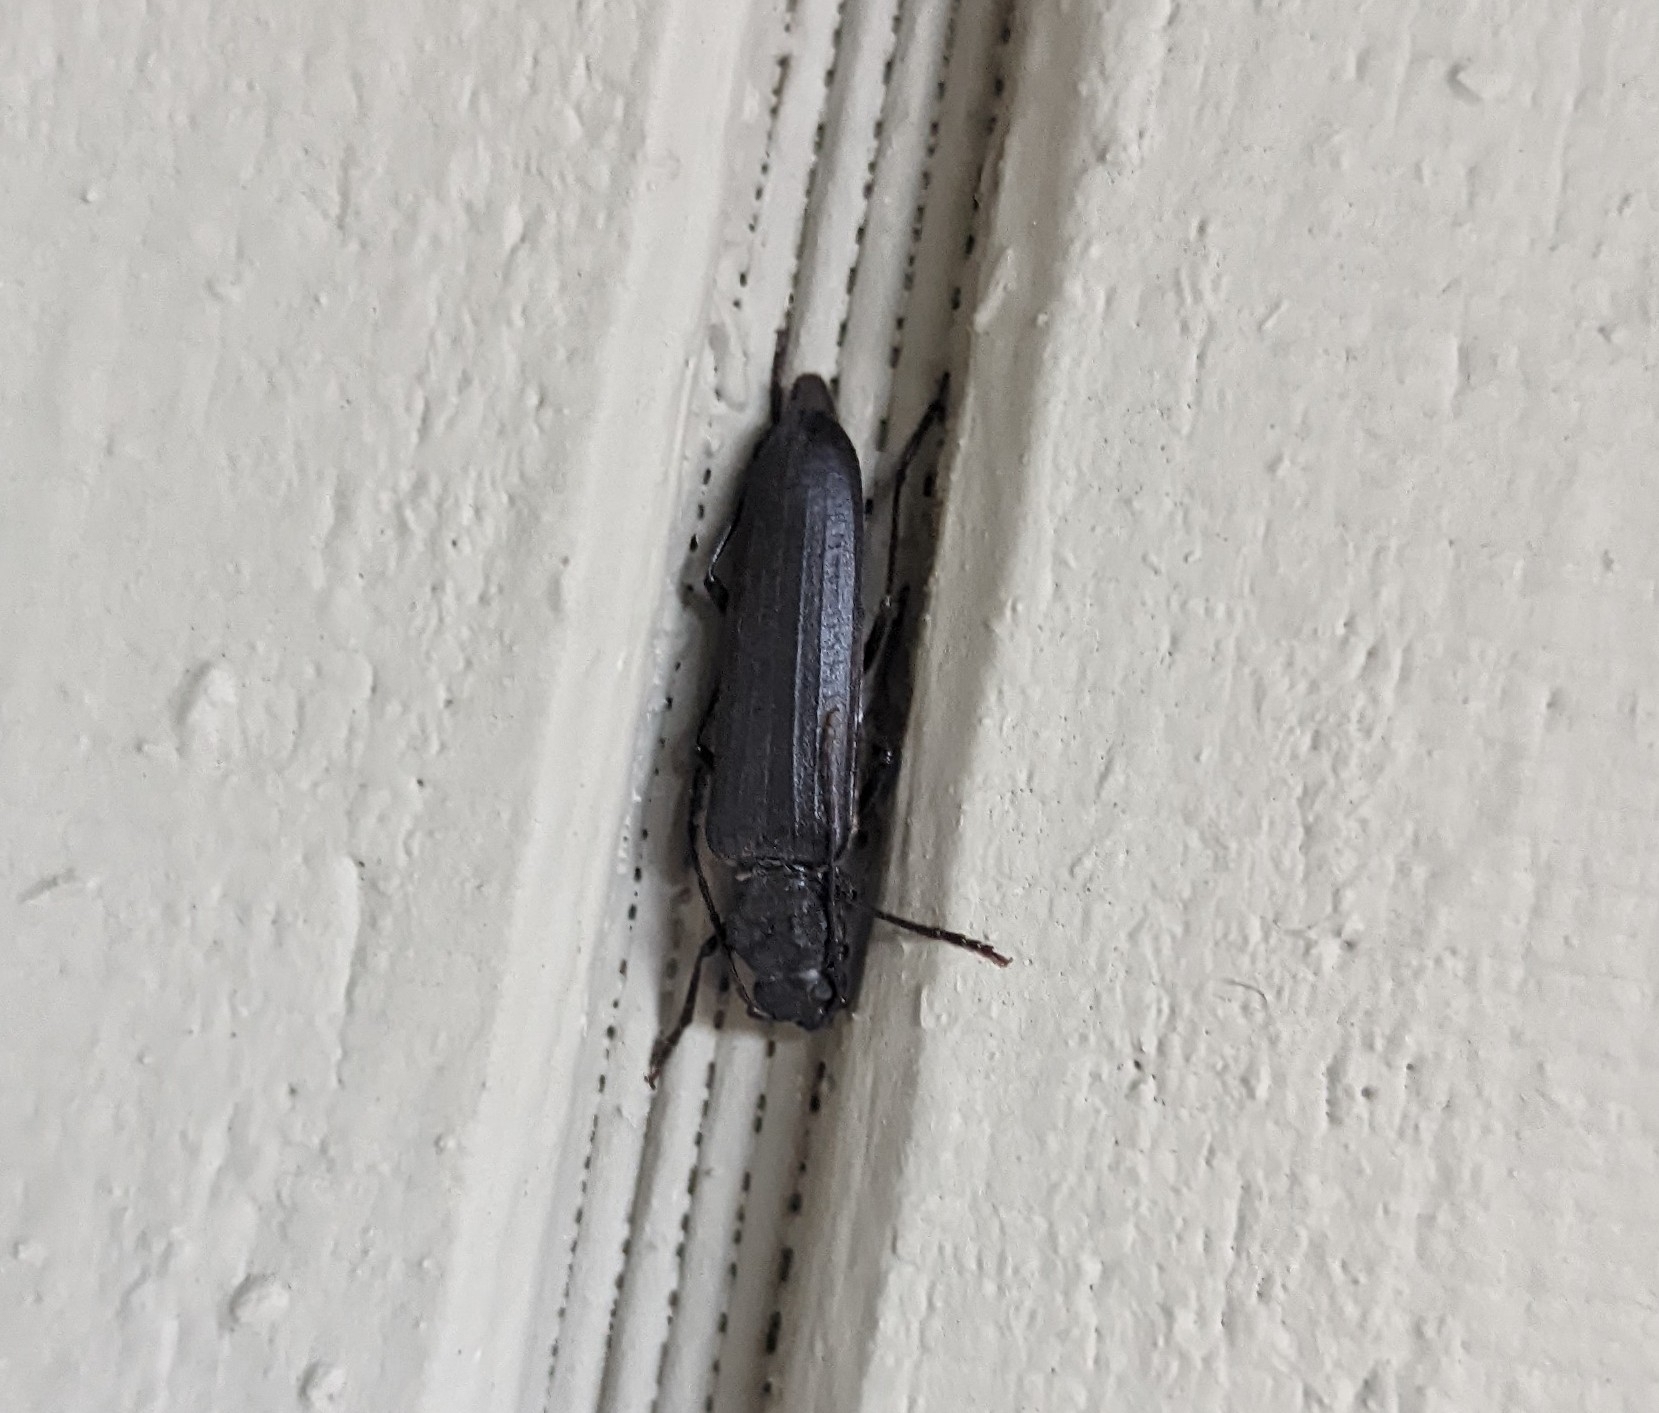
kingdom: Animalia
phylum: Arthropoda
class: Insecta
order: Coleoptera
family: Cerambycidae
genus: Arhopalus
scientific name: Arhopalus productus
